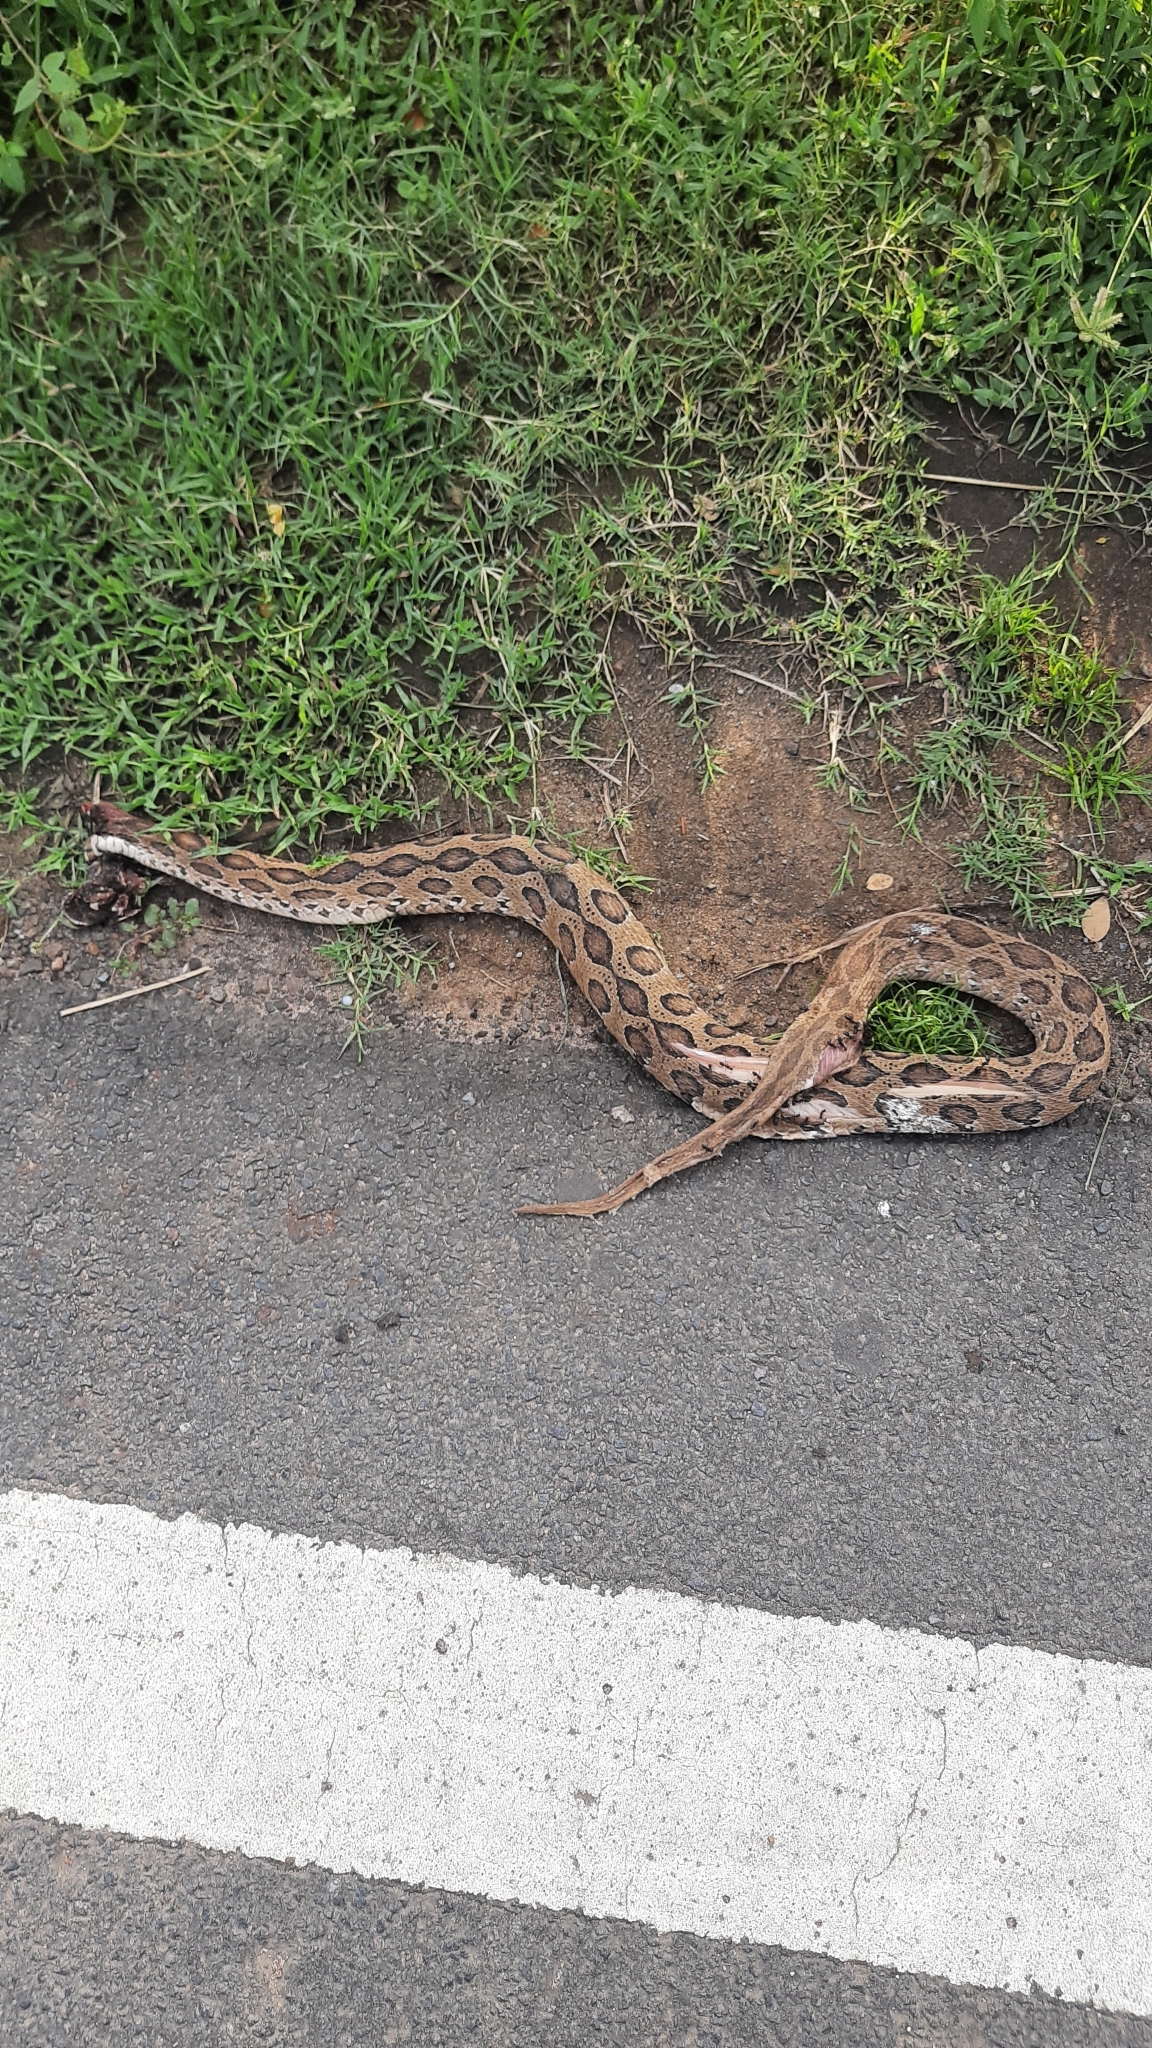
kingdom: Animalia
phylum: Chordata
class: Squamata
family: Viperidae
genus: Daboia
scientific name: Daboia russelii
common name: Western russel’s viper
